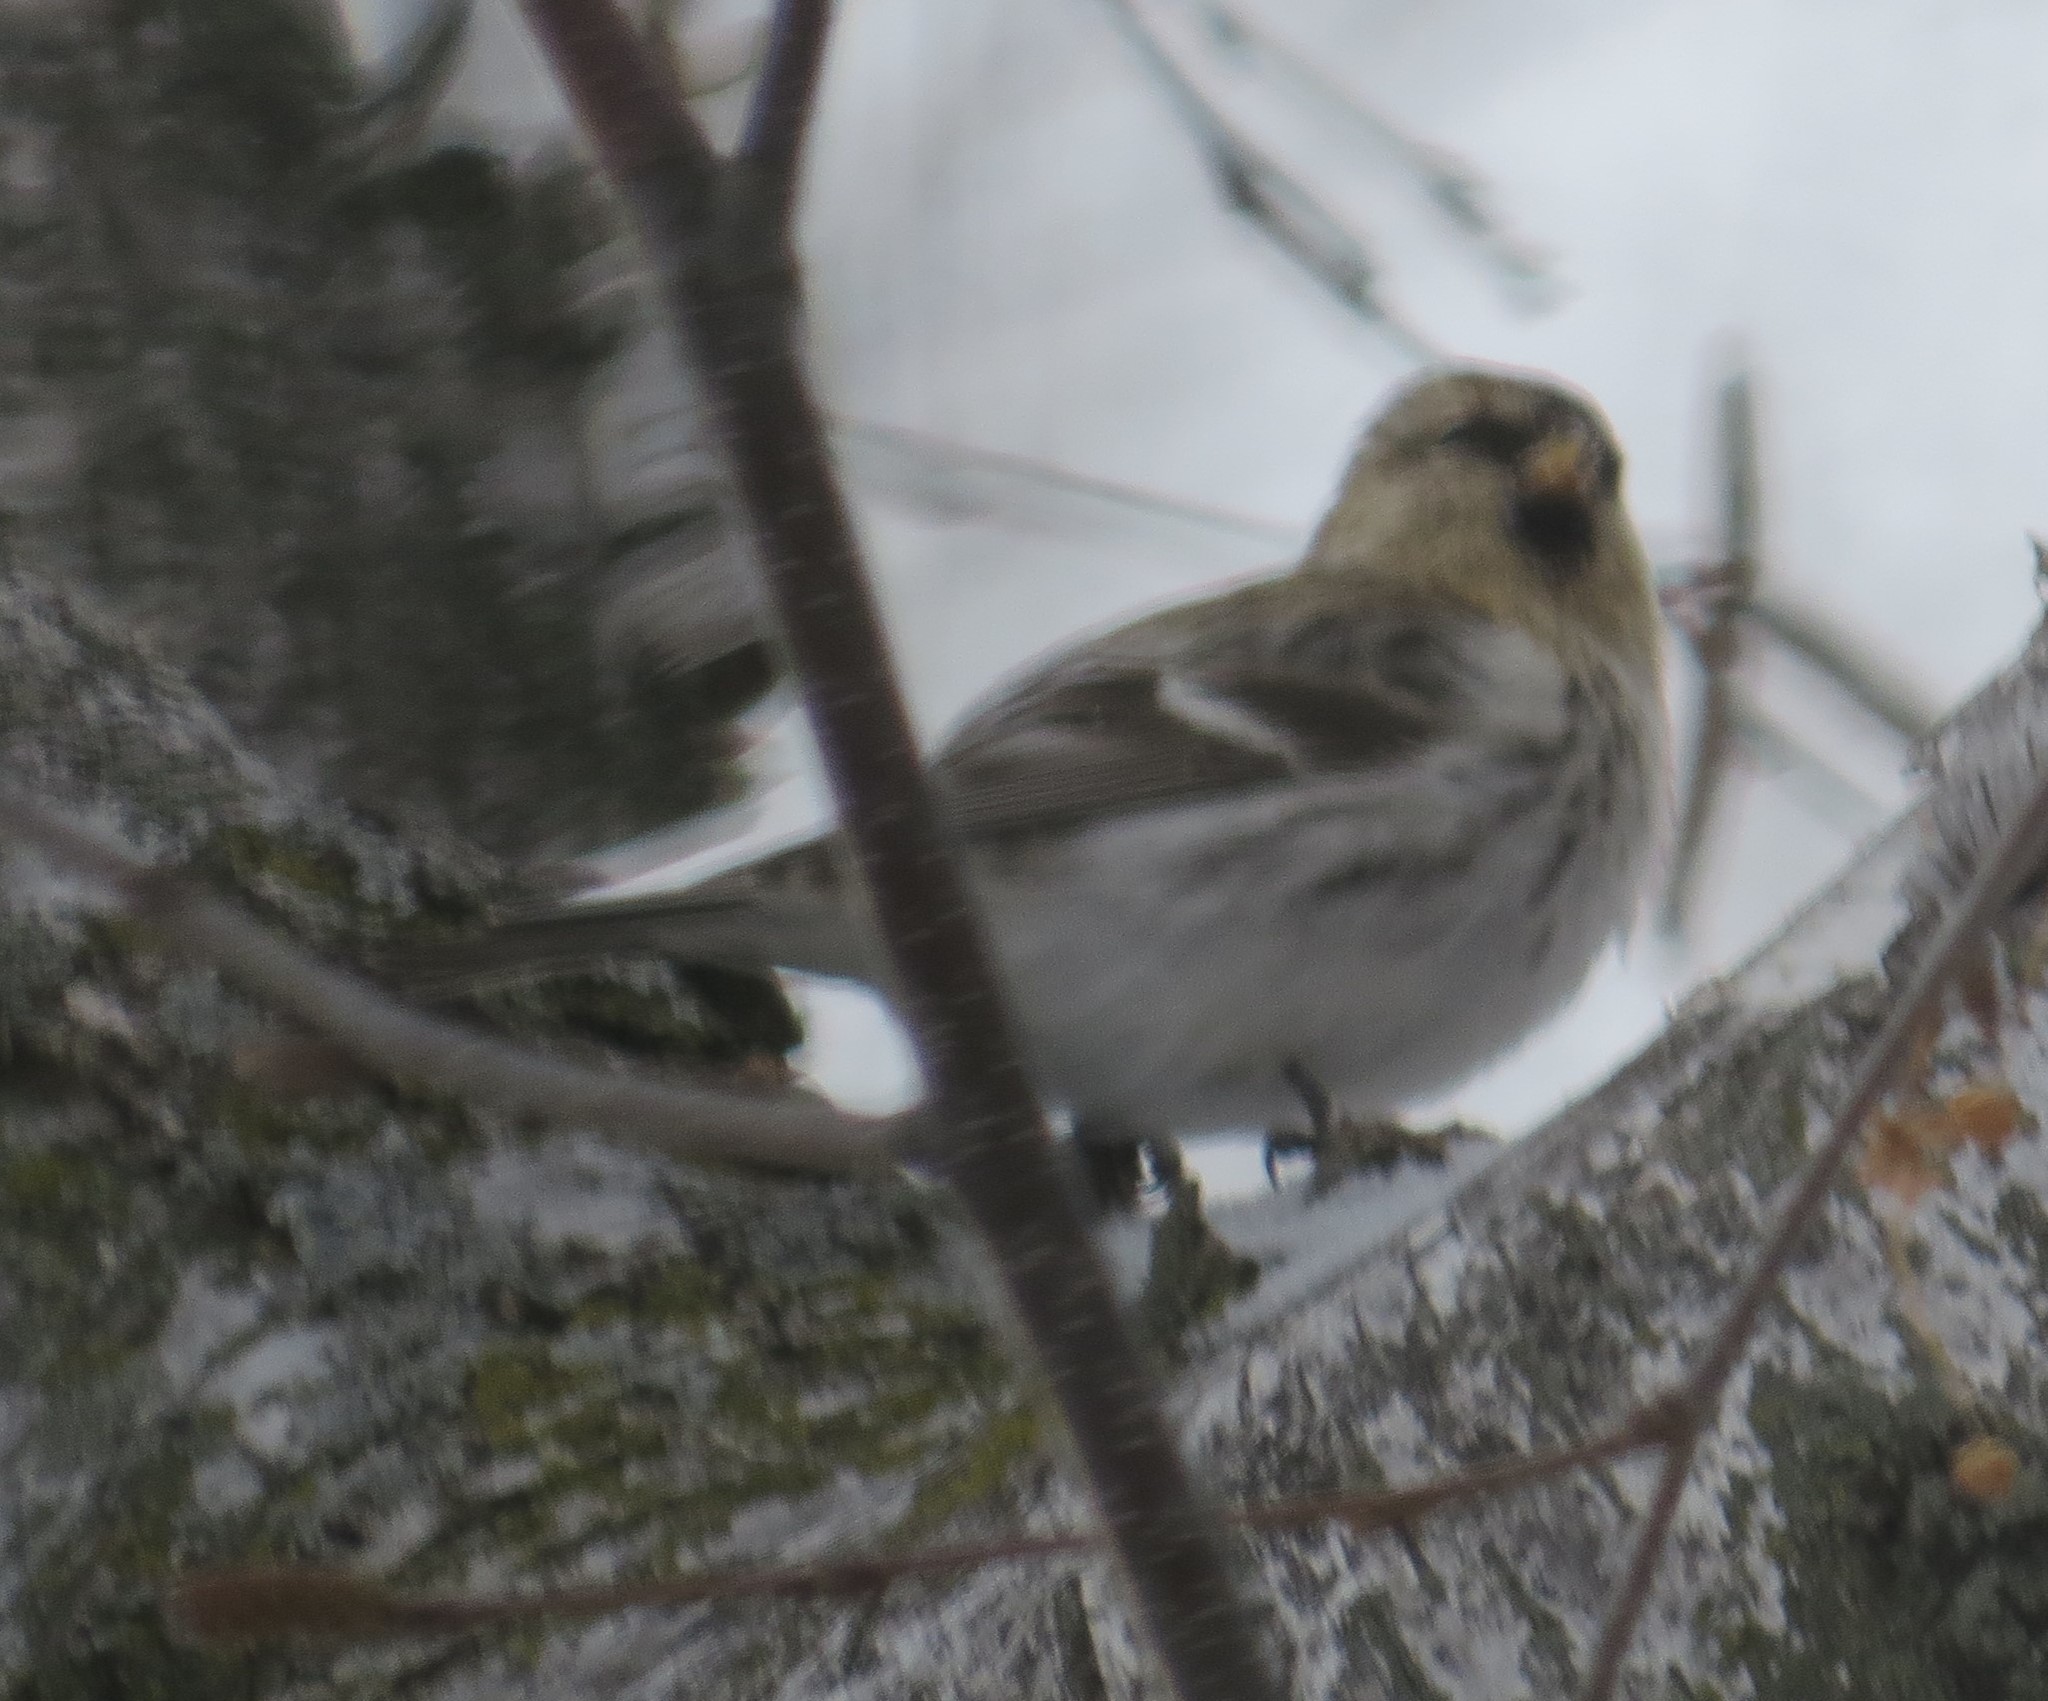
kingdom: Animalia
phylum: Chordata
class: Aves
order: Passeriformes
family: Fringillidae
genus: Acanthis
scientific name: Acanthis hornemanni
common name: Arctic redpoll
